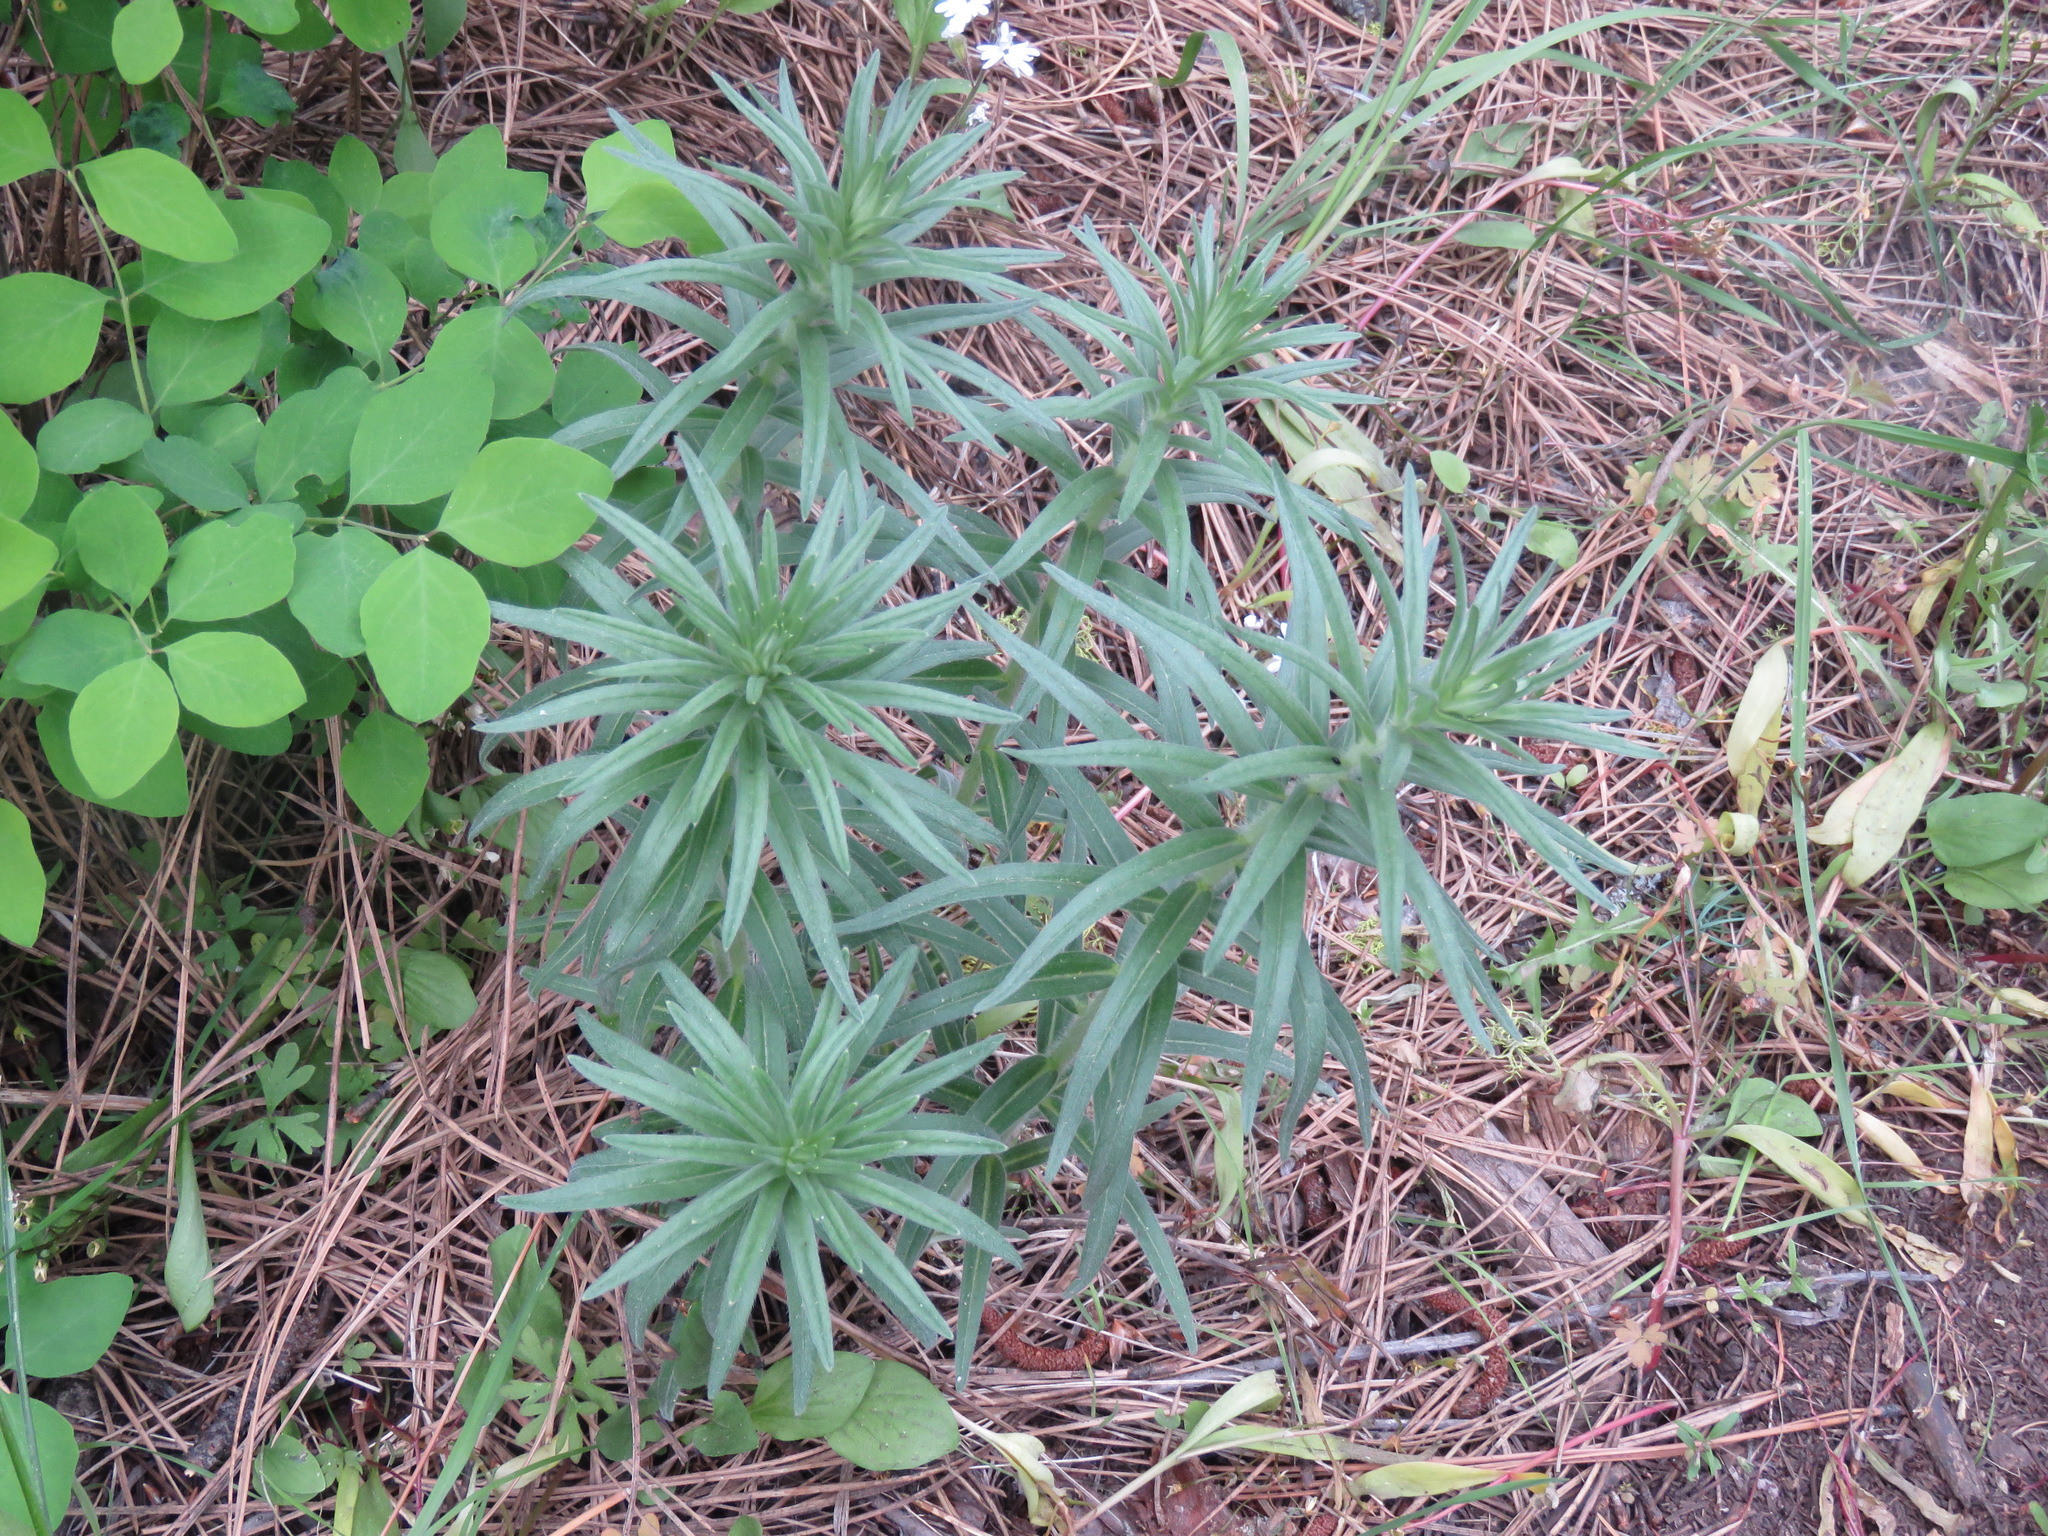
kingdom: Plantae
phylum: Tracheophyta
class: Magnoliopsida
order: Boraginales
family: Boraginaceae
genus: Lithospermum
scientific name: Lithospermum ruderale
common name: Western gromwell
